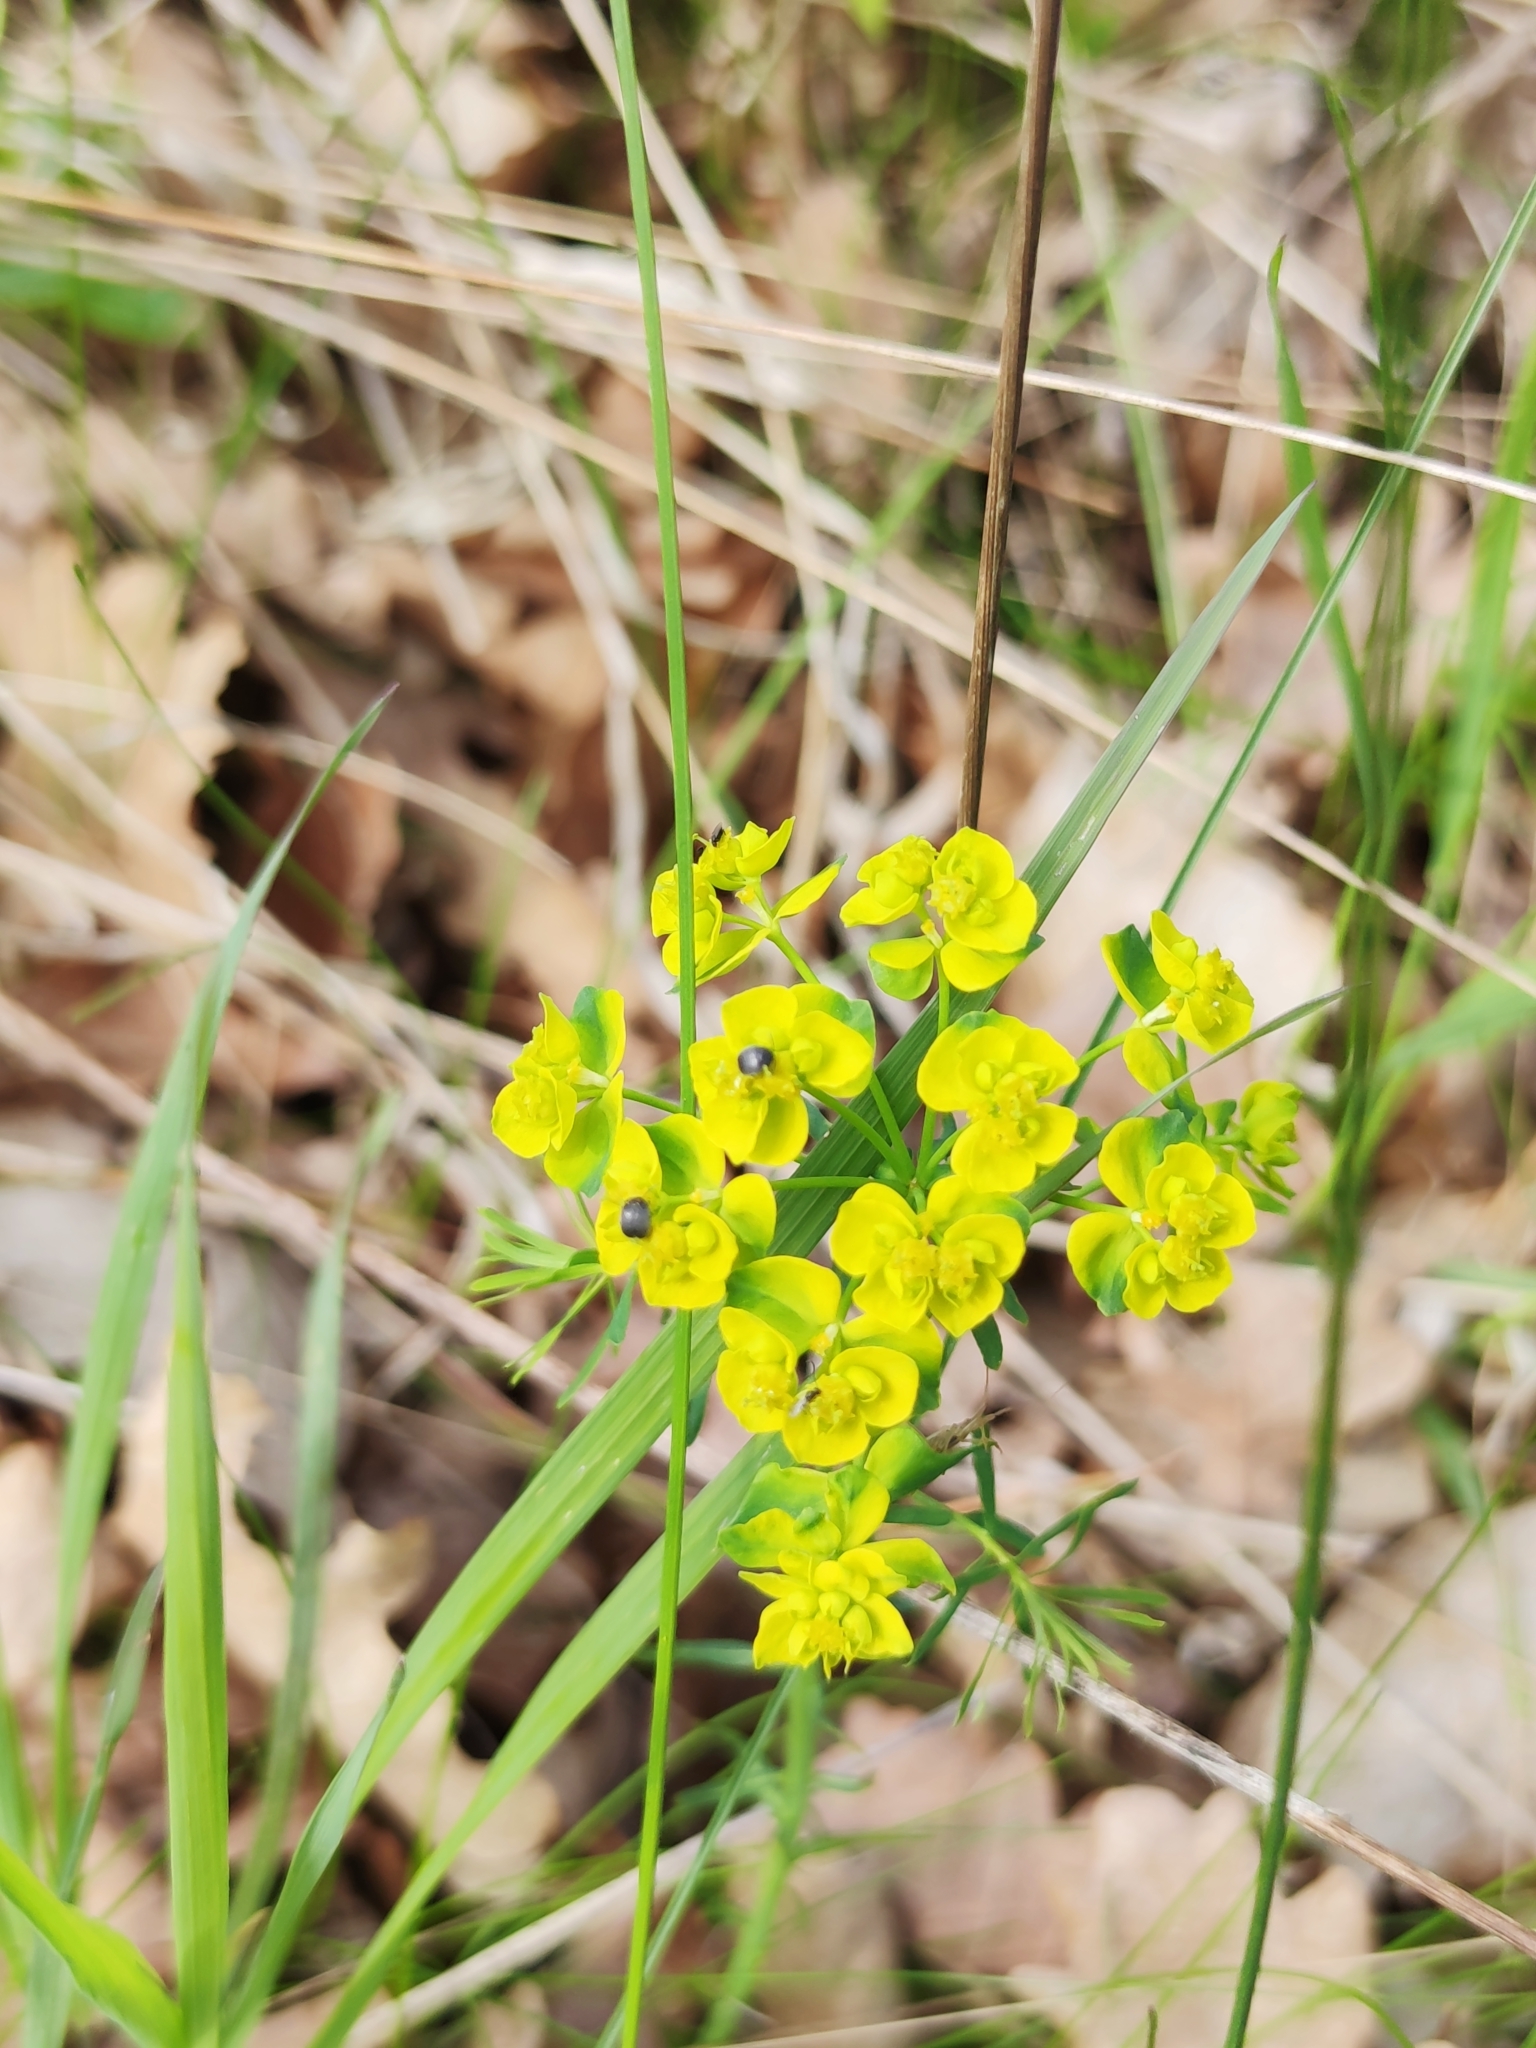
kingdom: Plantae
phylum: Tracheophyta
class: Magnoliopsida
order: Malpighiales
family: Euphorbiaceae
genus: Euphorbia
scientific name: Euphorbia cyparissias
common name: Cypress spurge
